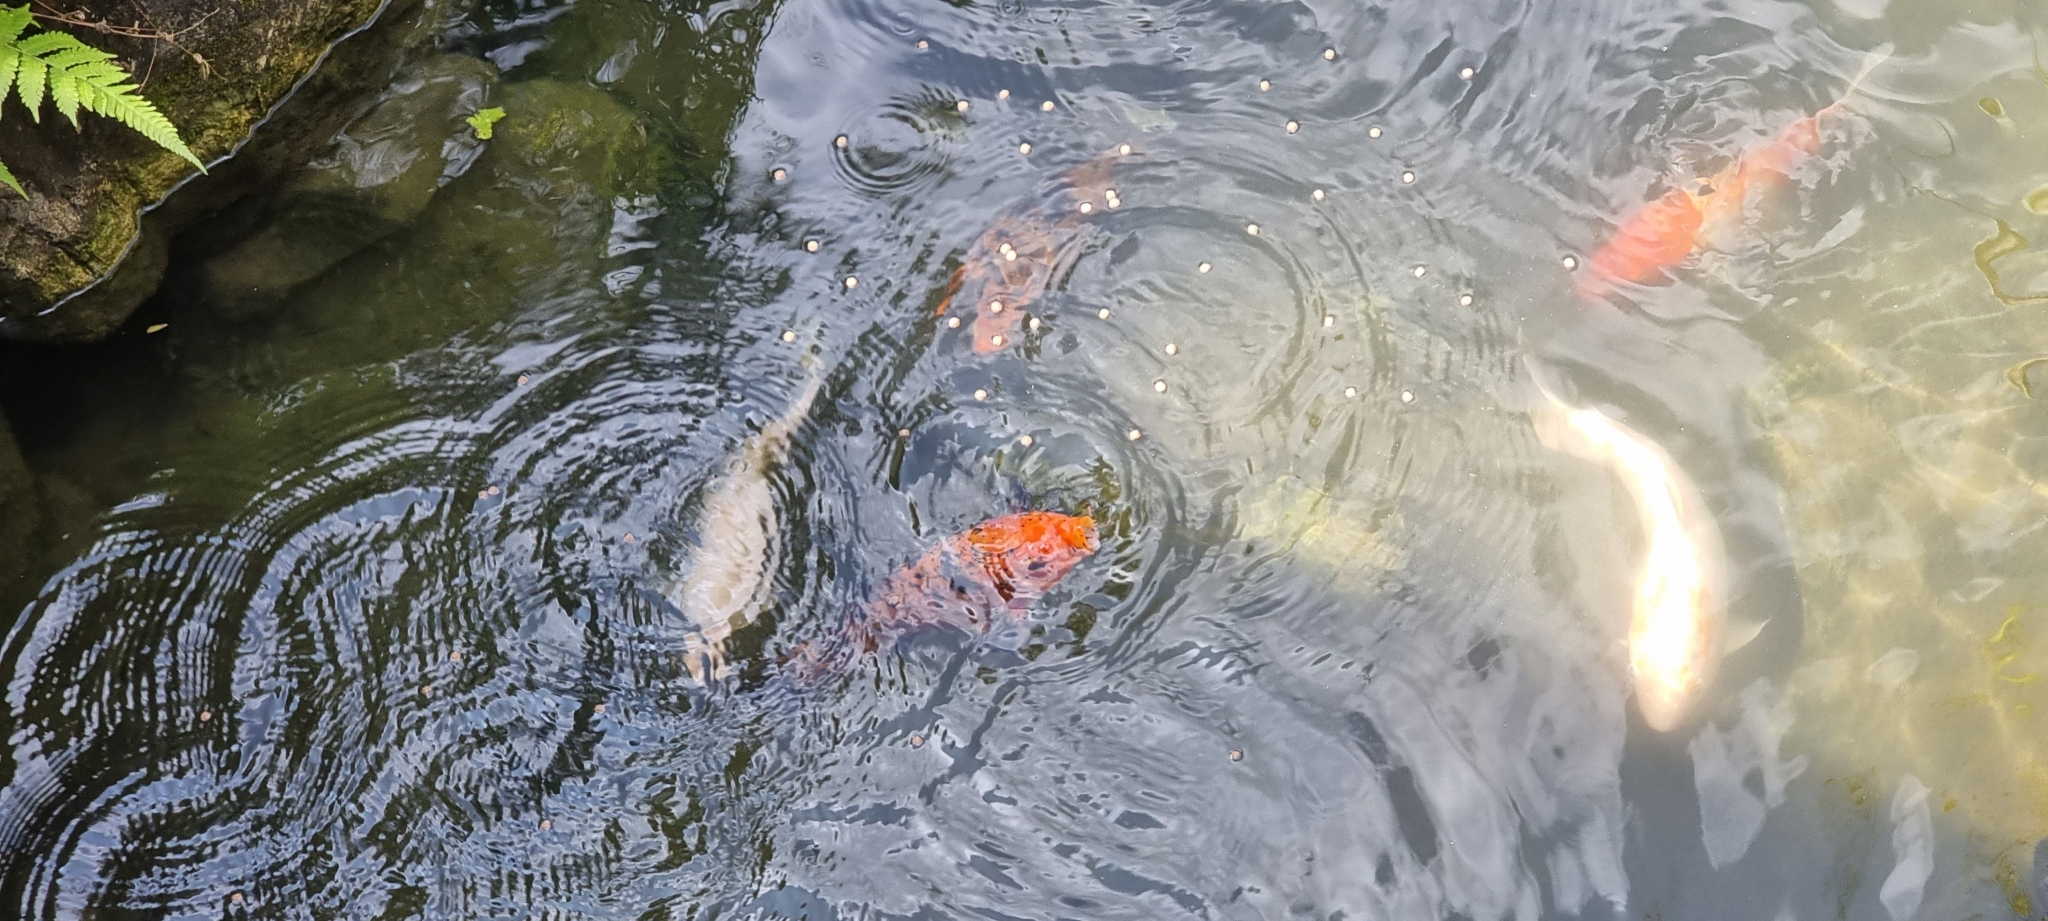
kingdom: Animalia
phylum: Chordata
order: Cypriniformes
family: Cyprinidae
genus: Cyprinus
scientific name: Cyprinus rubrofuscus
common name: Koi
